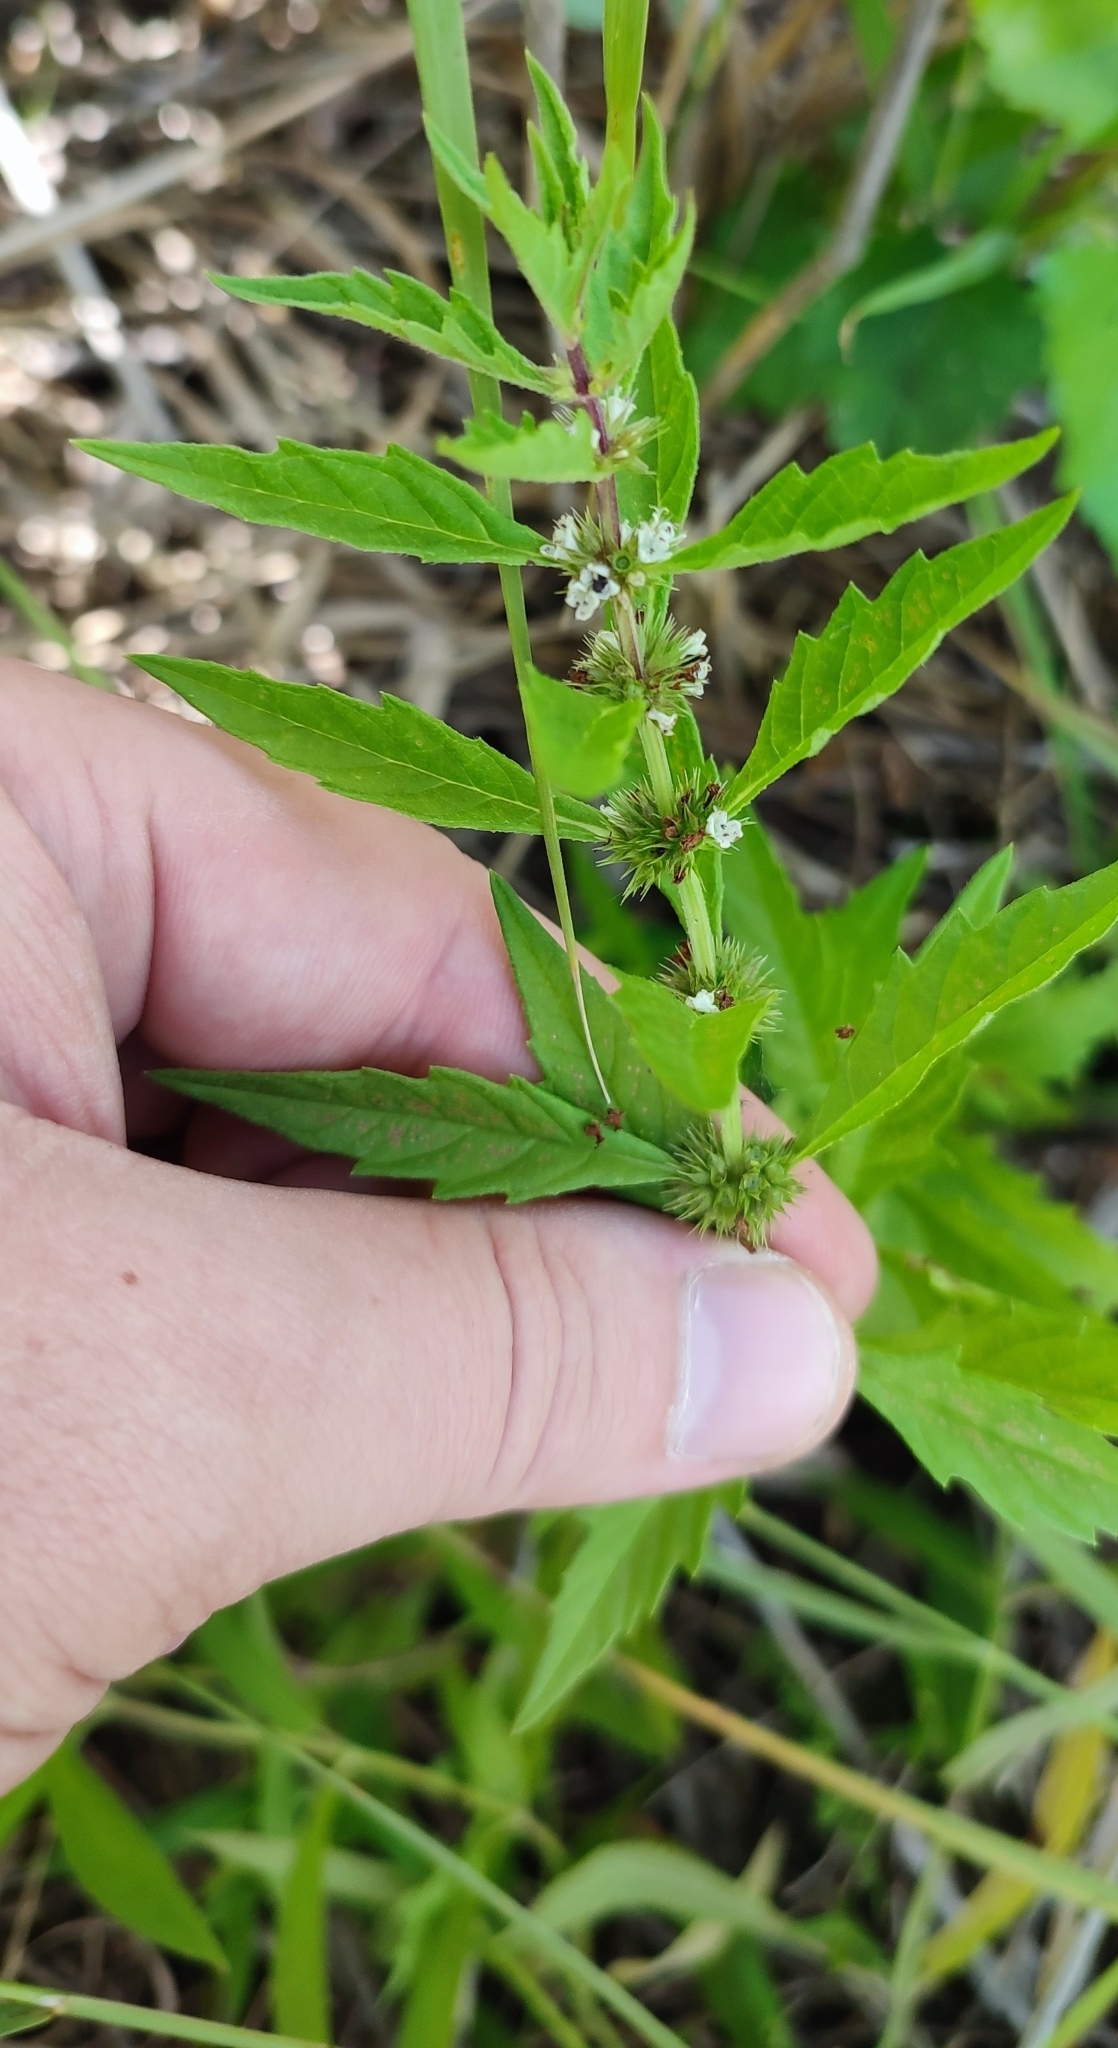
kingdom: Plantae
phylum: Tracheophyta
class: Magnoliopsida
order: Lamiales
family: Lamiaceae
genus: Lycopus
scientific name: Lycopus europaeus
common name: European bugleweed
